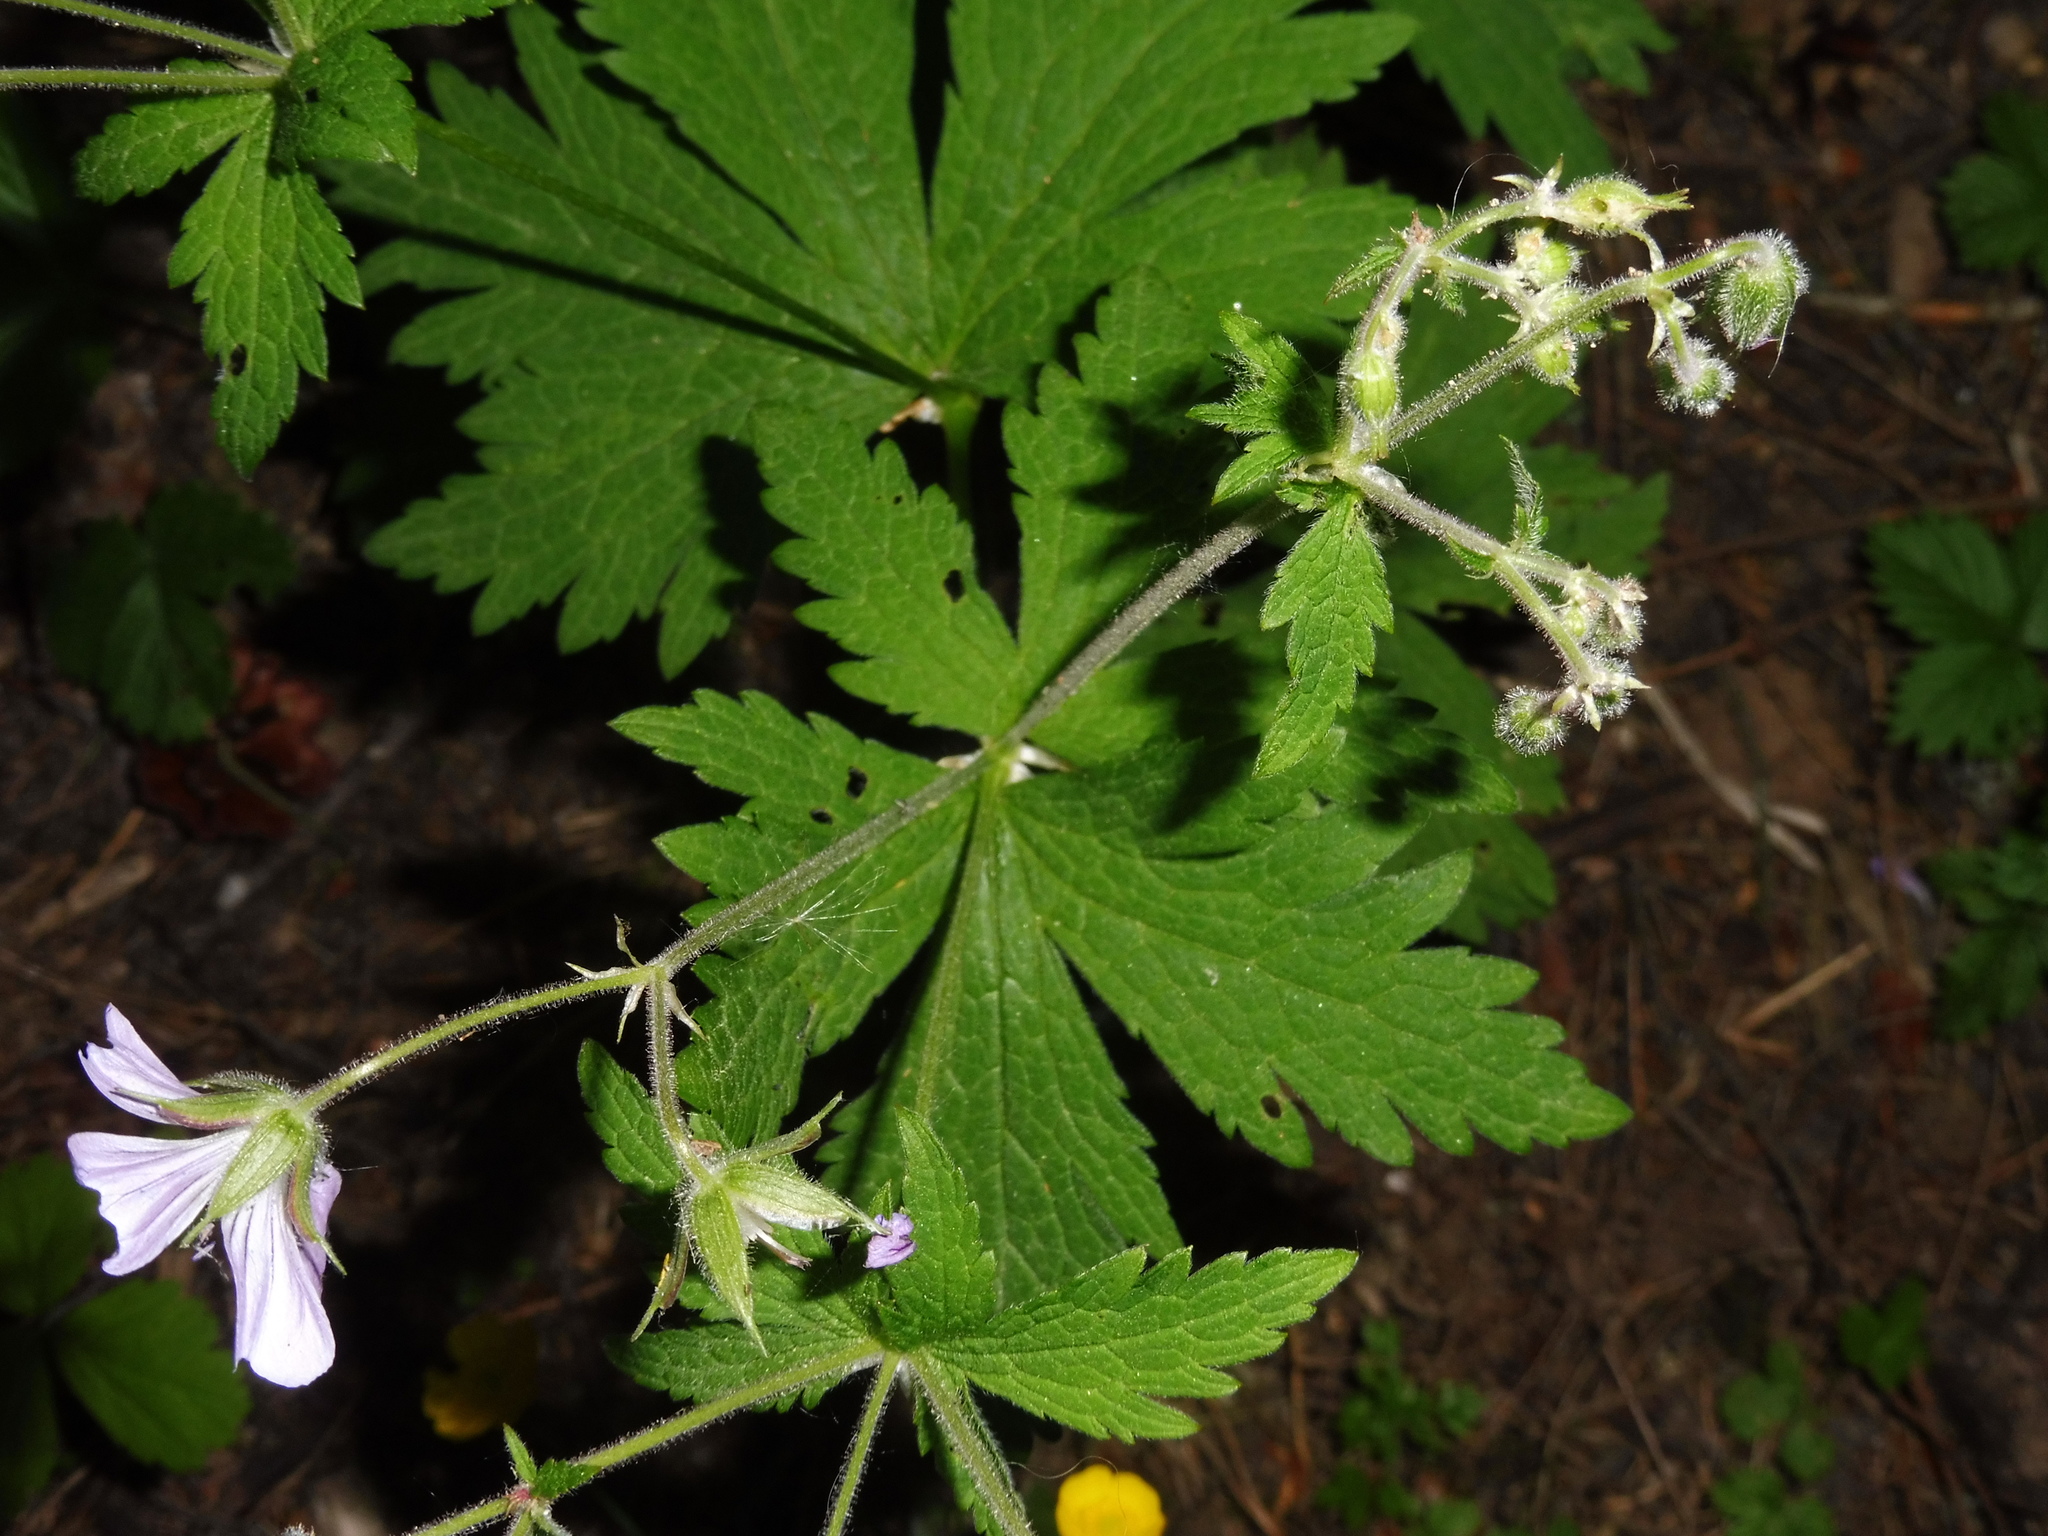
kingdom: Plantae
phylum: Tracheophyta
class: Magnoliopsida
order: Geraniales
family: Geraniaceae
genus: Geranium
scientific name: Geranium sylvaticum
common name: Wood crane's-bill
